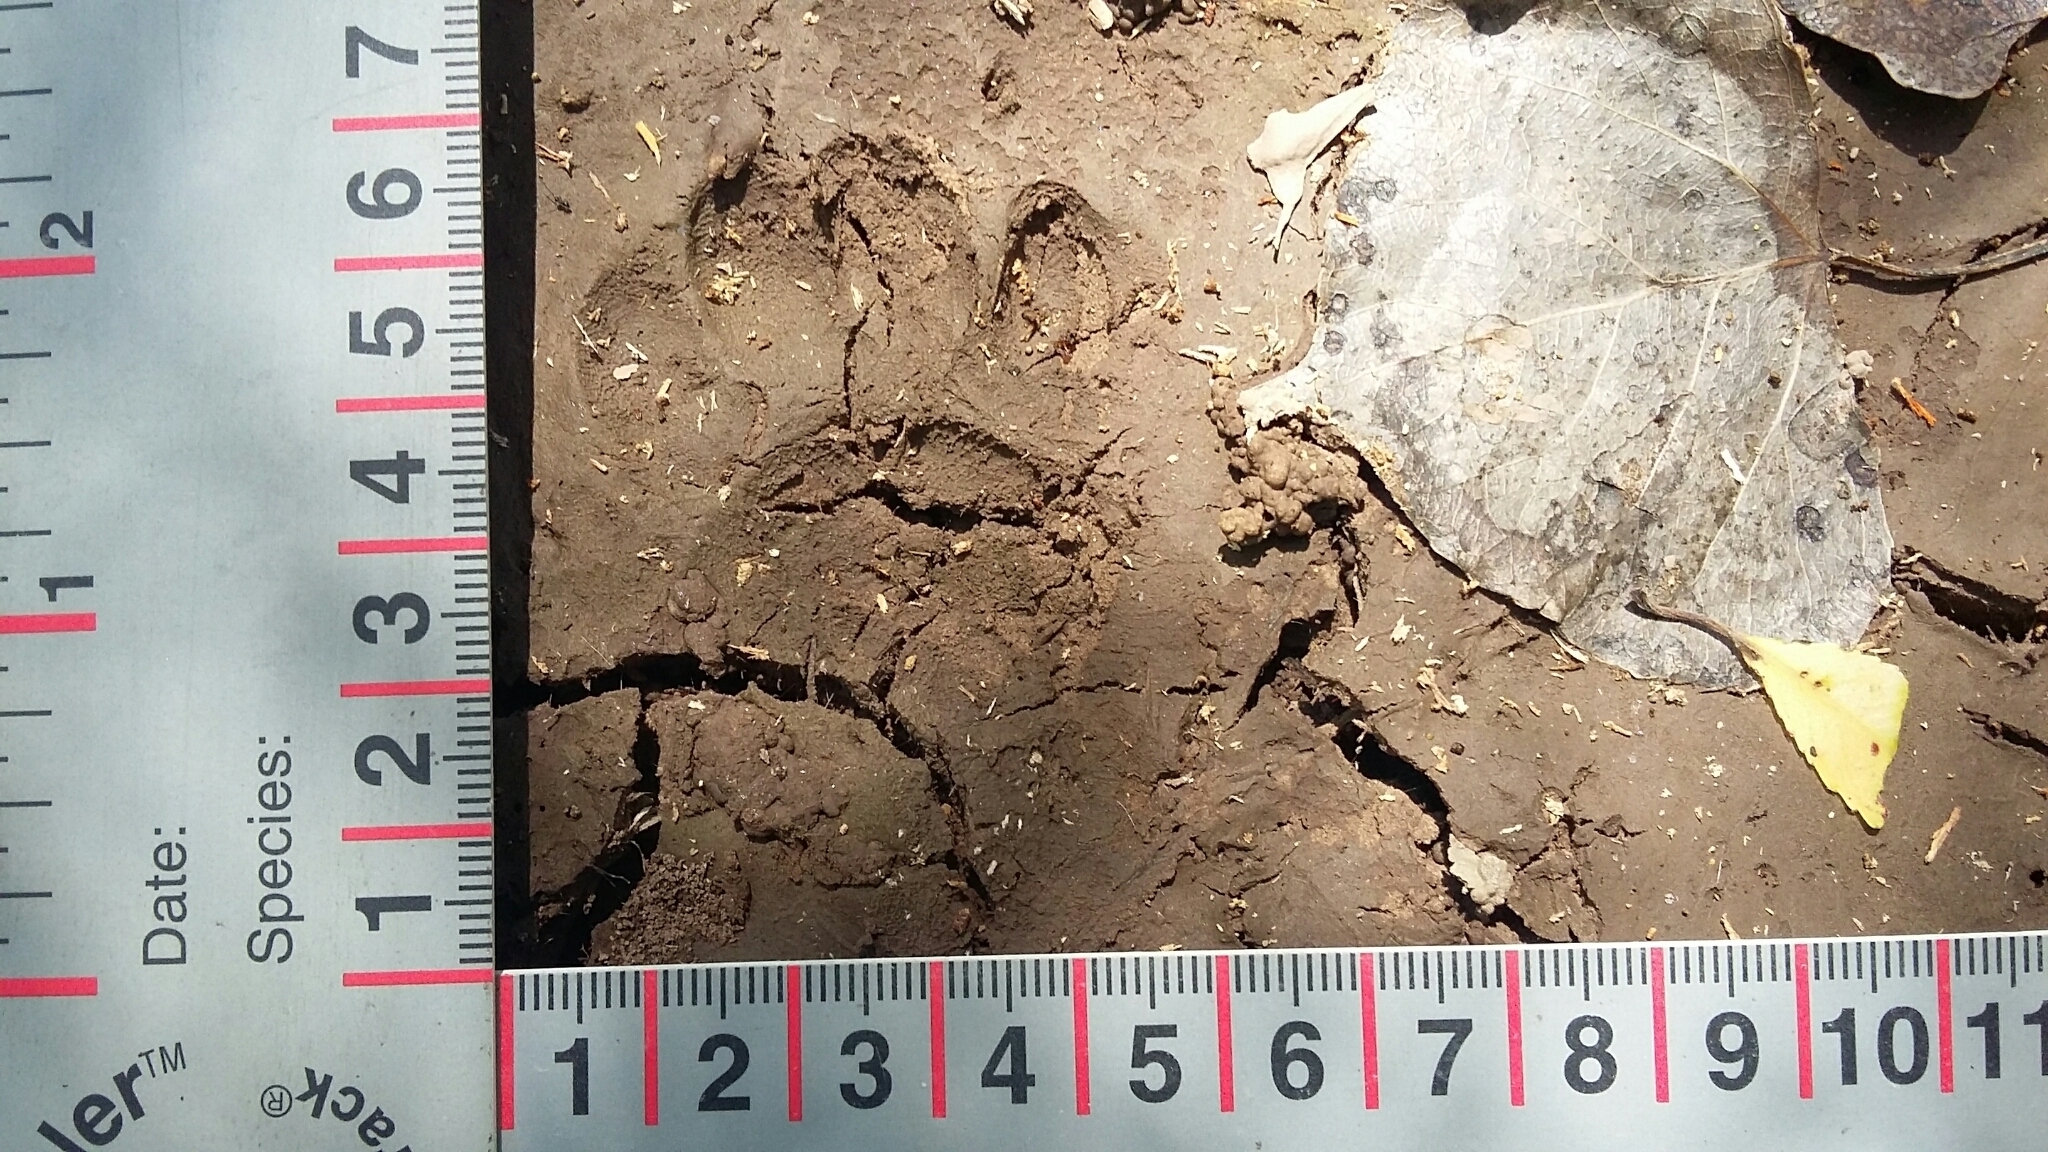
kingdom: Animalia
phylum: Chordata
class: Mammalia
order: Carnivora
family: Mephitidae
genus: Conepatus
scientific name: Conepatus leuconotus
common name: Eastern hog-nosed skunk
